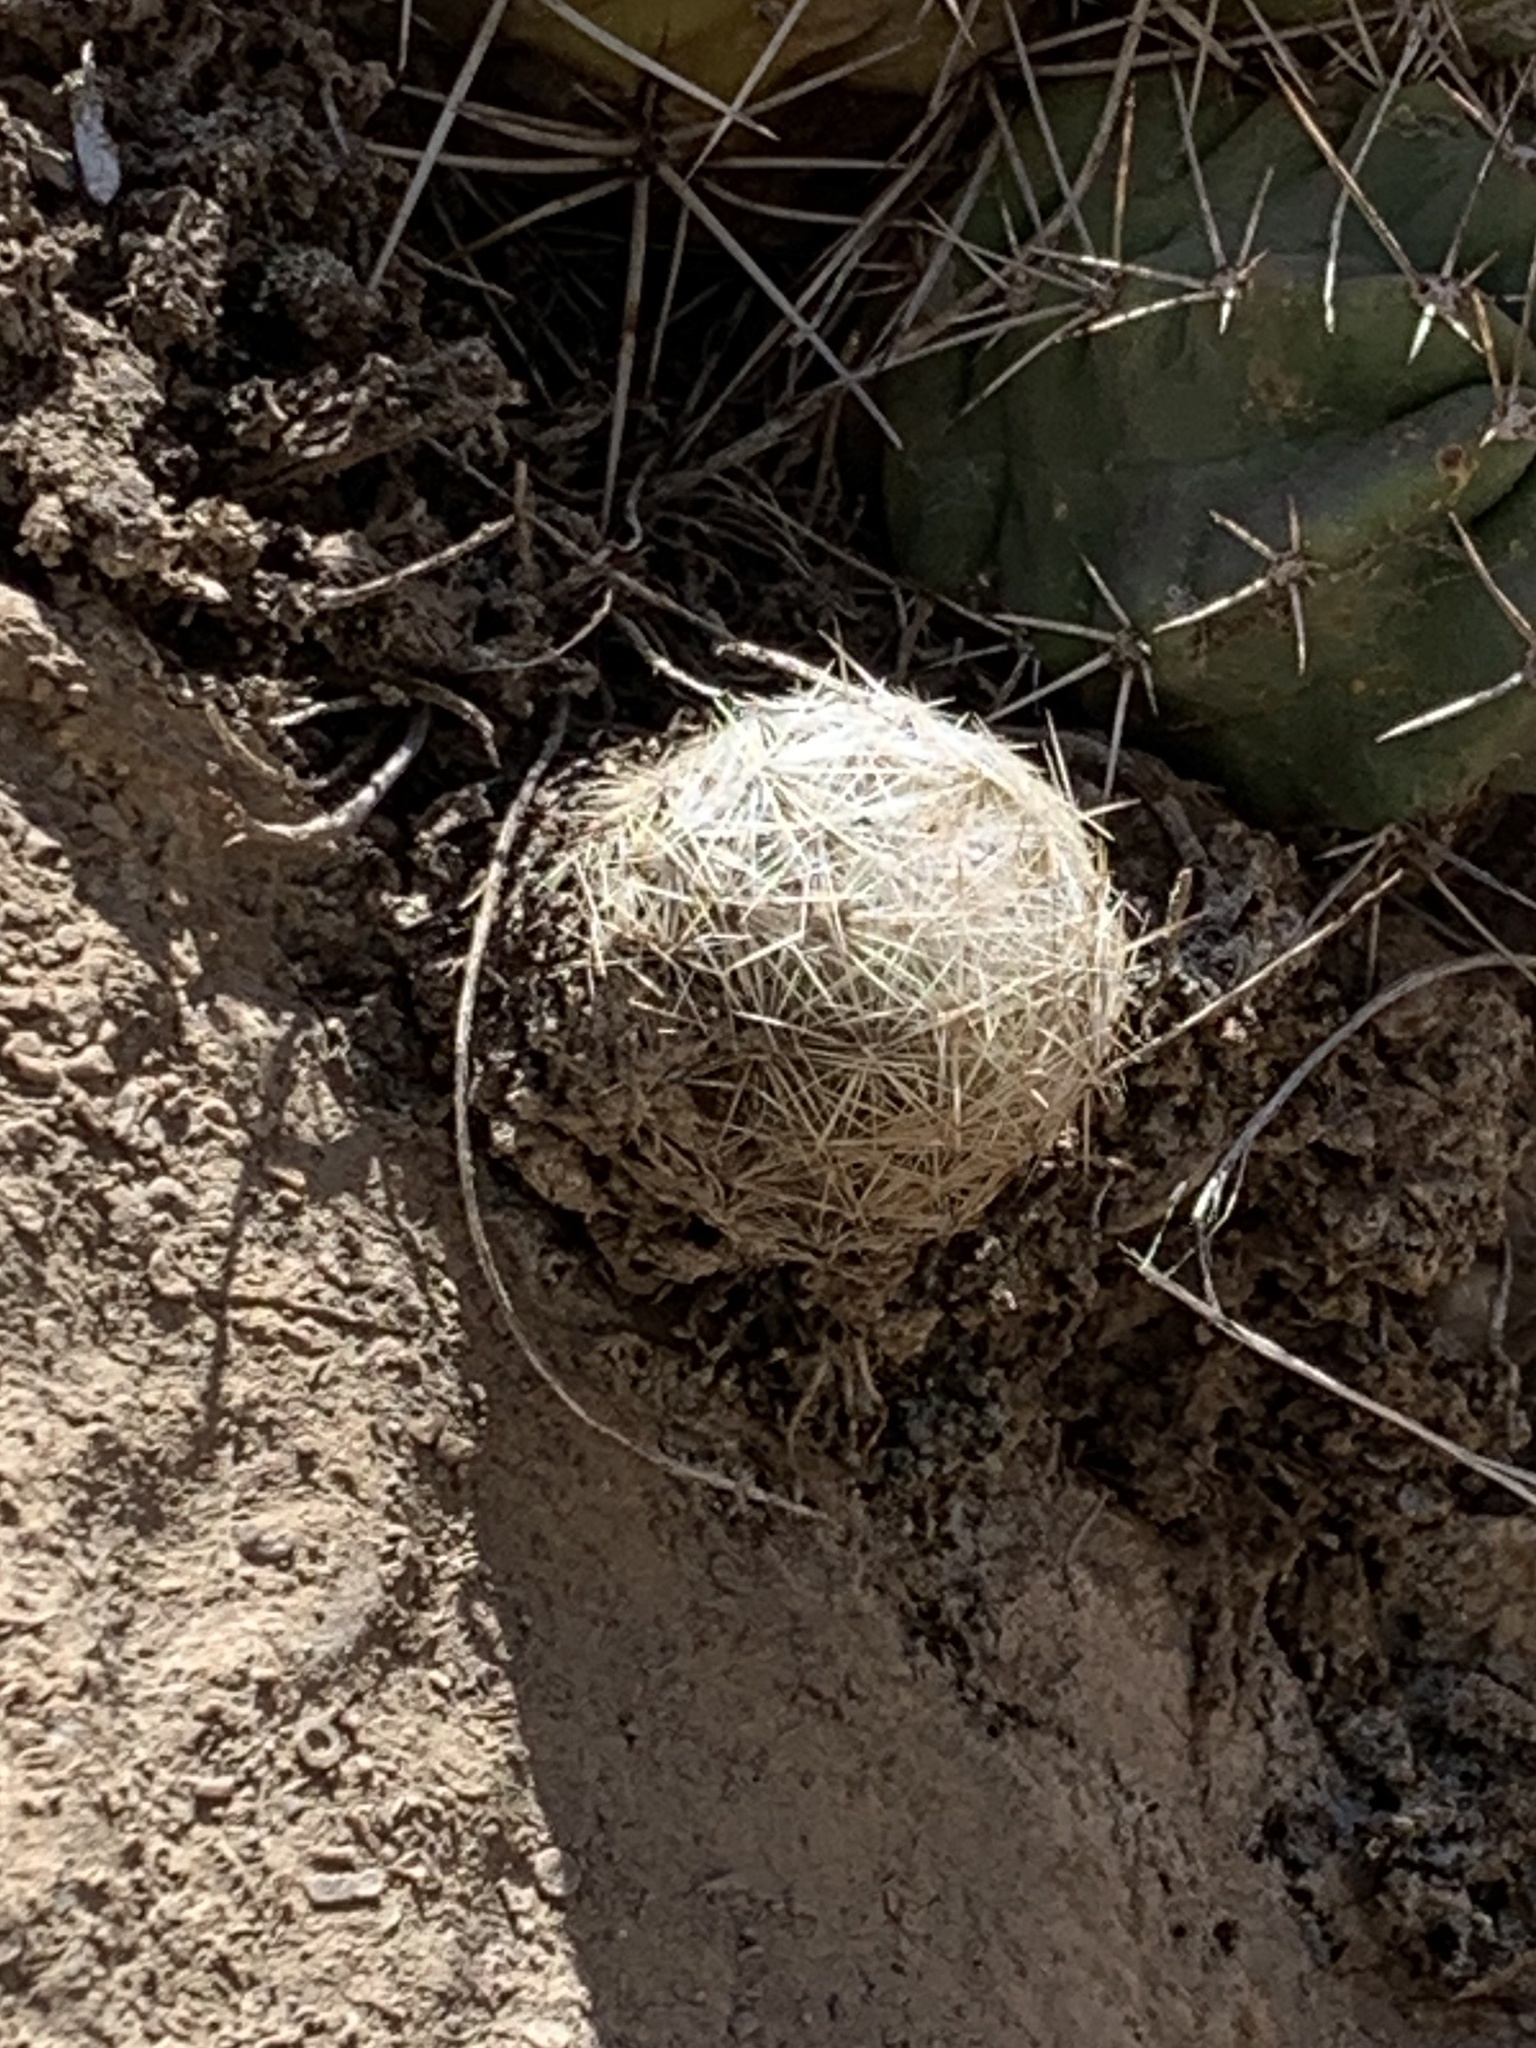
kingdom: Plantae
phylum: Tracheophyta
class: Magnoliopsida
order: Caryophyllales
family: Cactaceae
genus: Pelecyphora
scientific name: Pelecyphora vivipara
